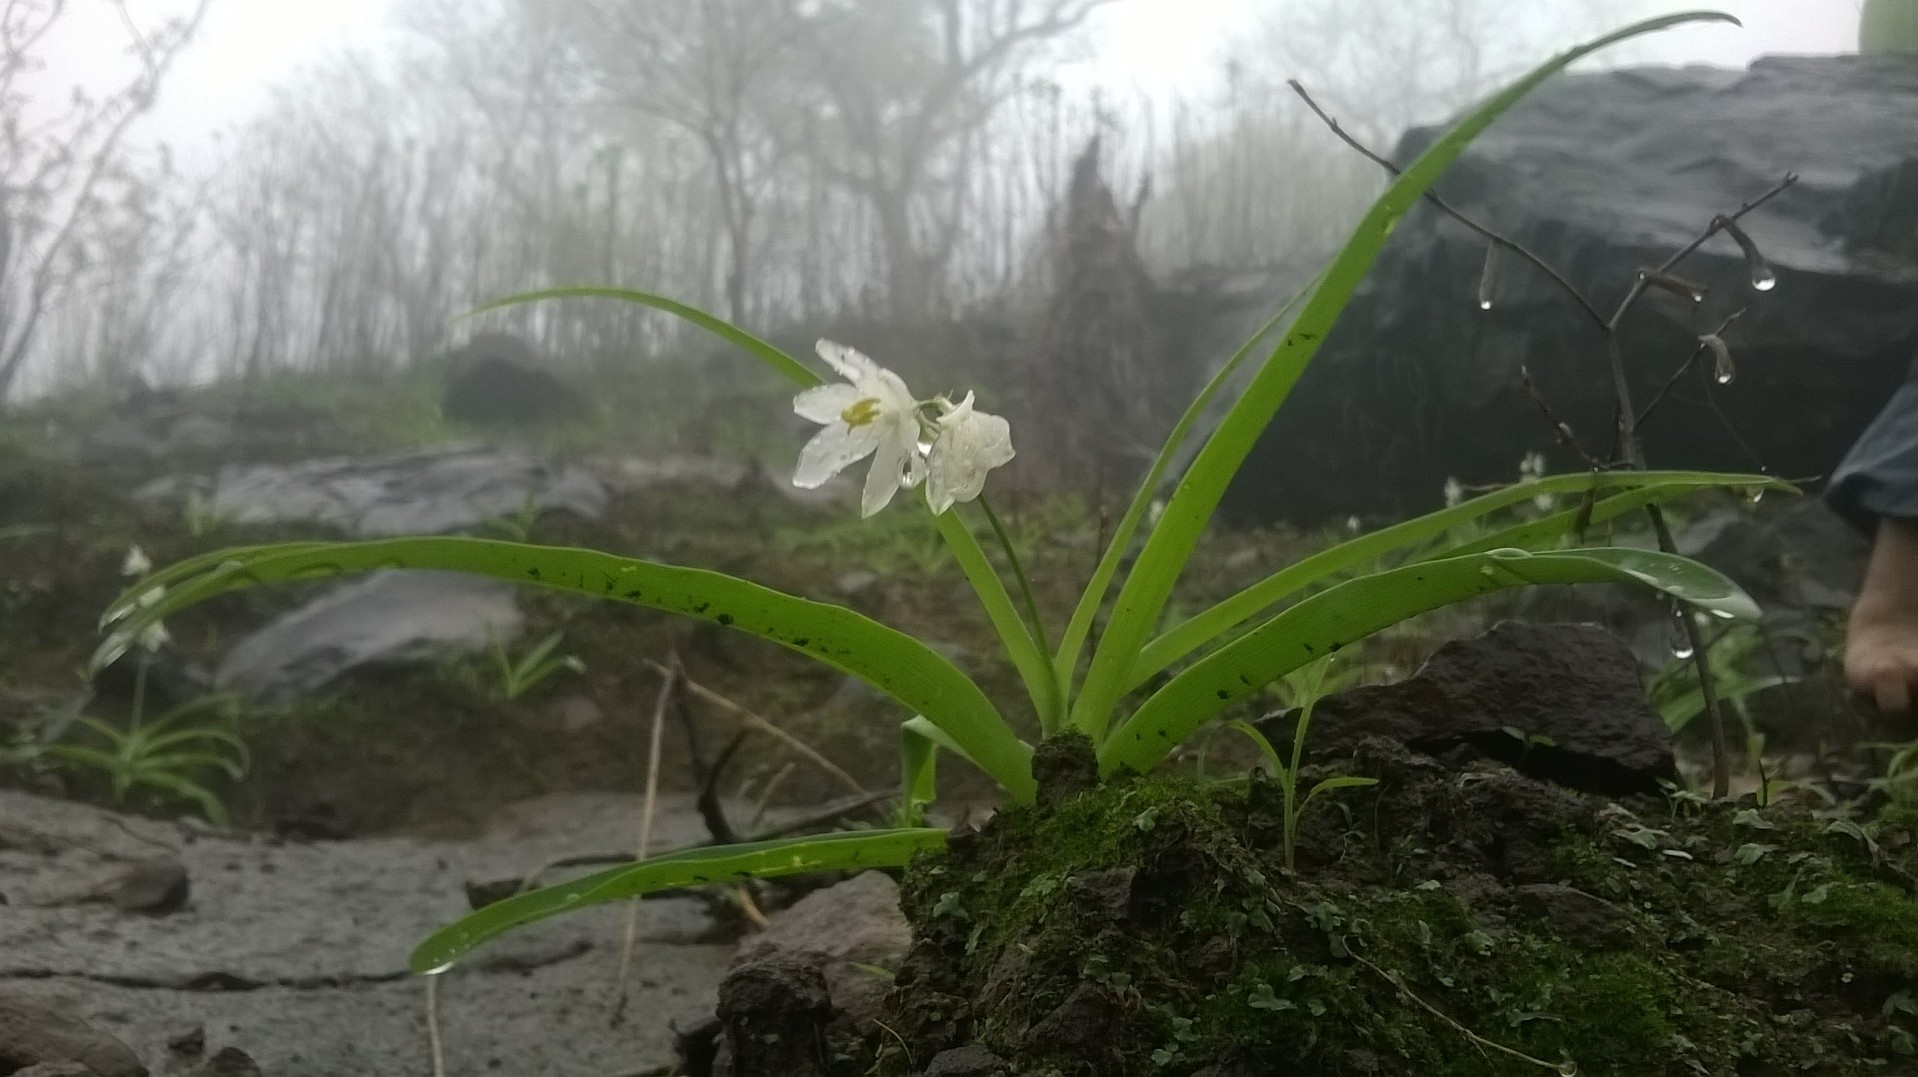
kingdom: Plantae
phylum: Tracheophyta
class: Liliopsida
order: Asparagales
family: Asparagaceae
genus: Chlorophytum
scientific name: Chlorophytum tuberosum
